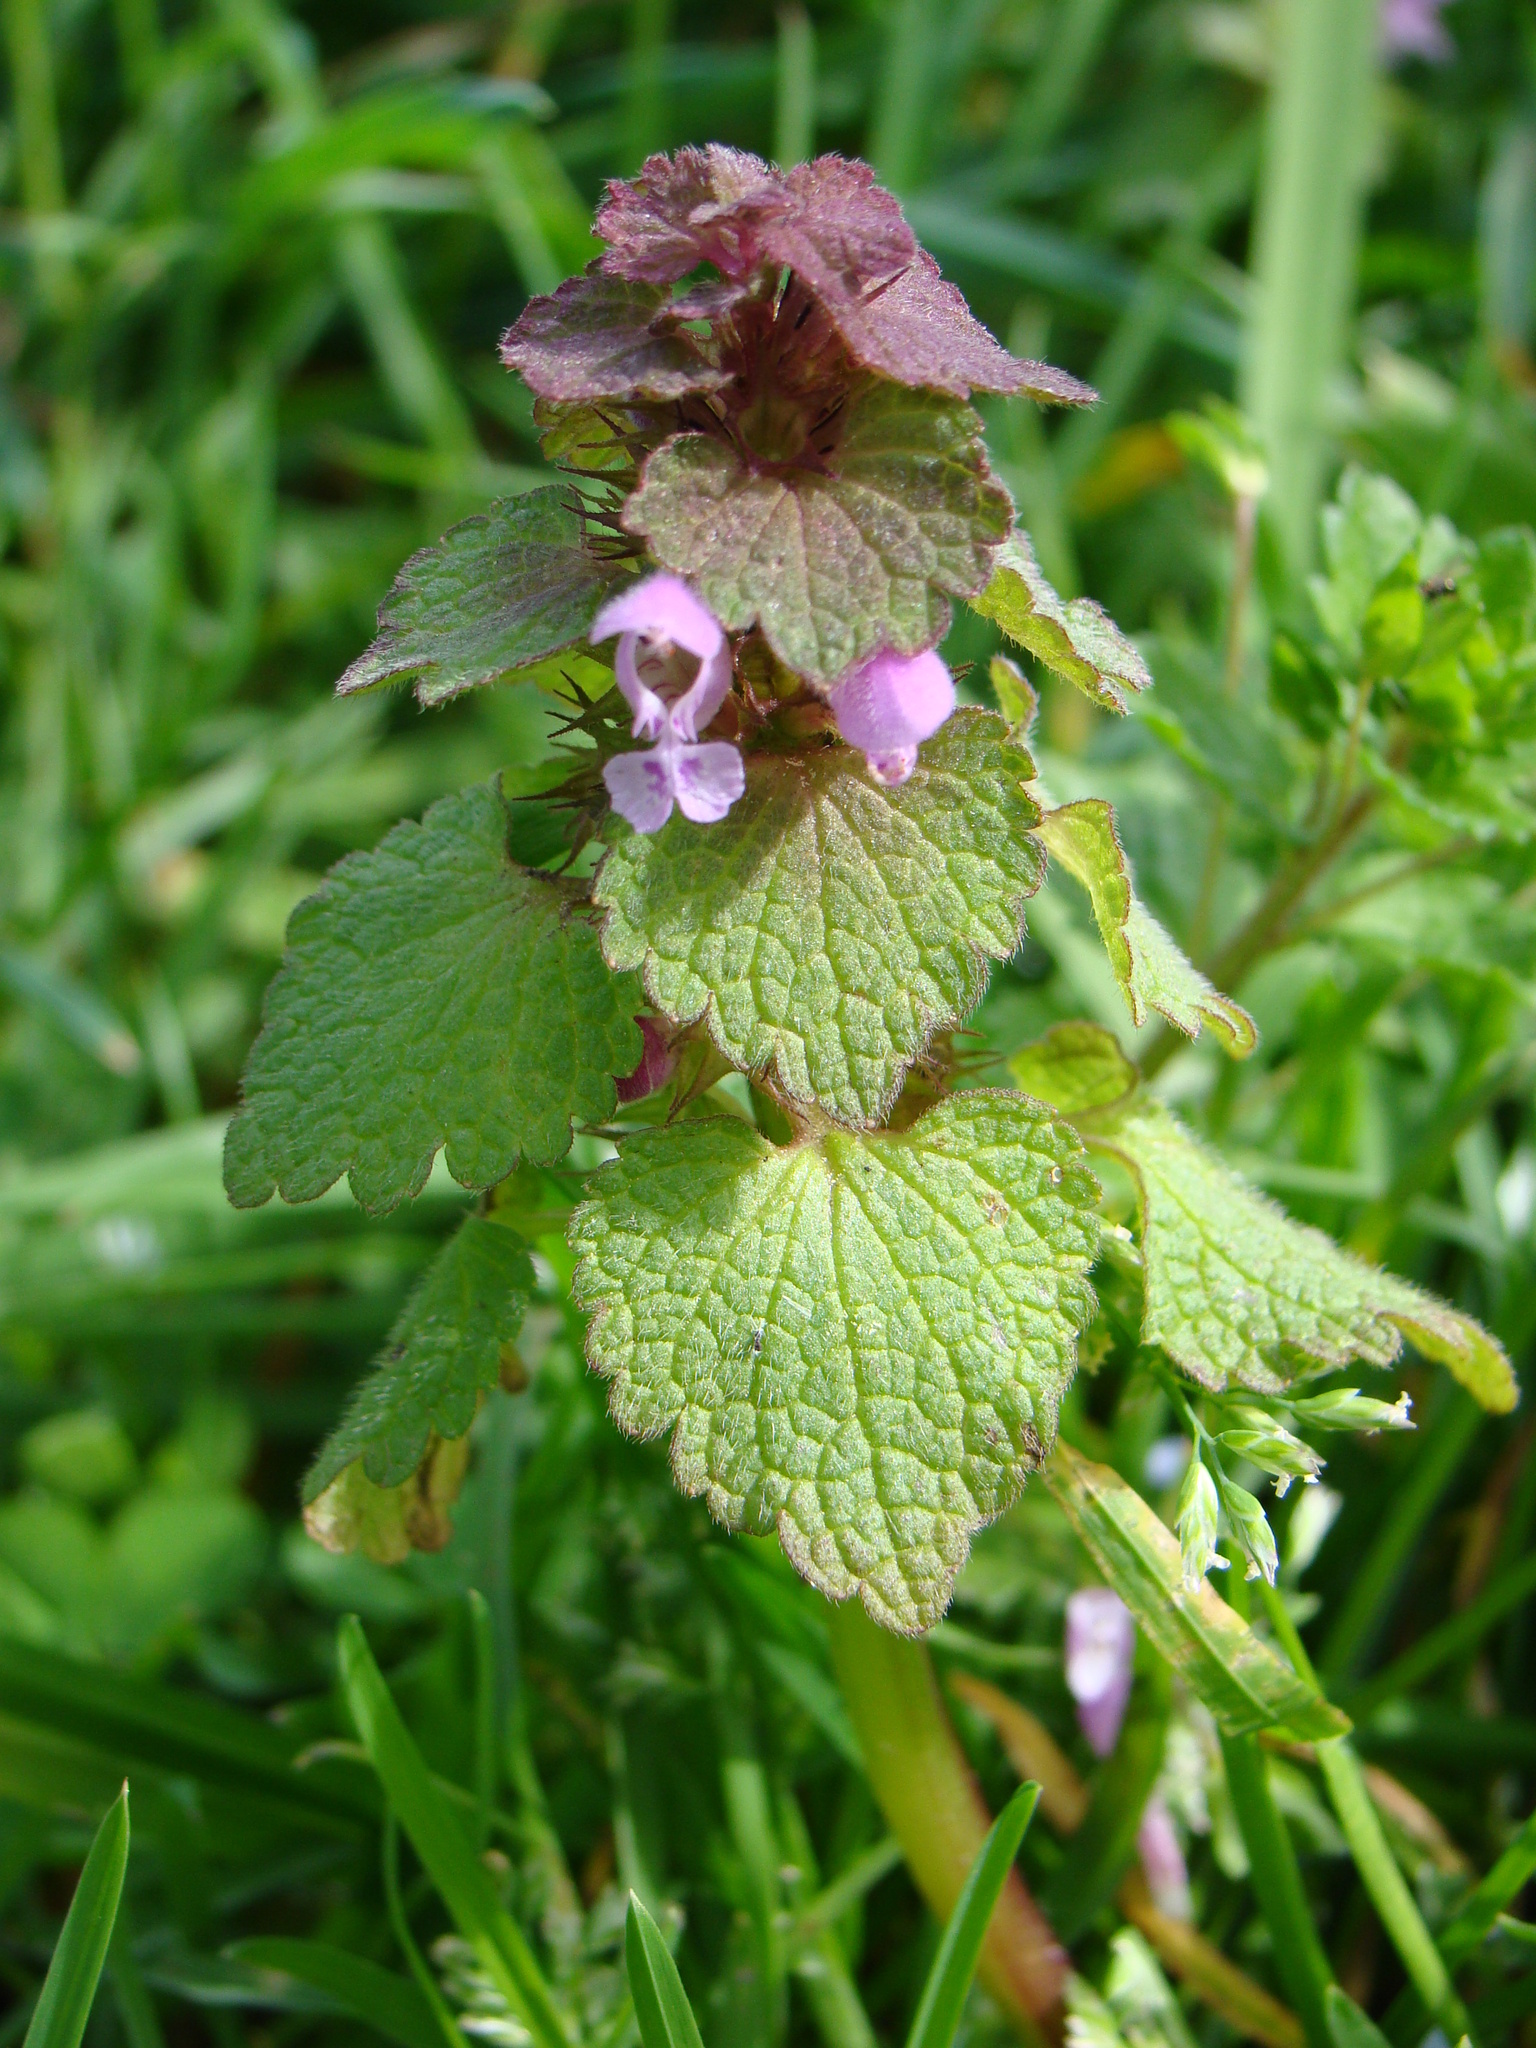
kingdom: Plantae
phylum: Tracheophyta
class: Magnoliopsida
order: Lamiales
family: Lamiaceae
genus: Lamium
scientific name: Lamium purpureum
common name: Red dead-nettle
